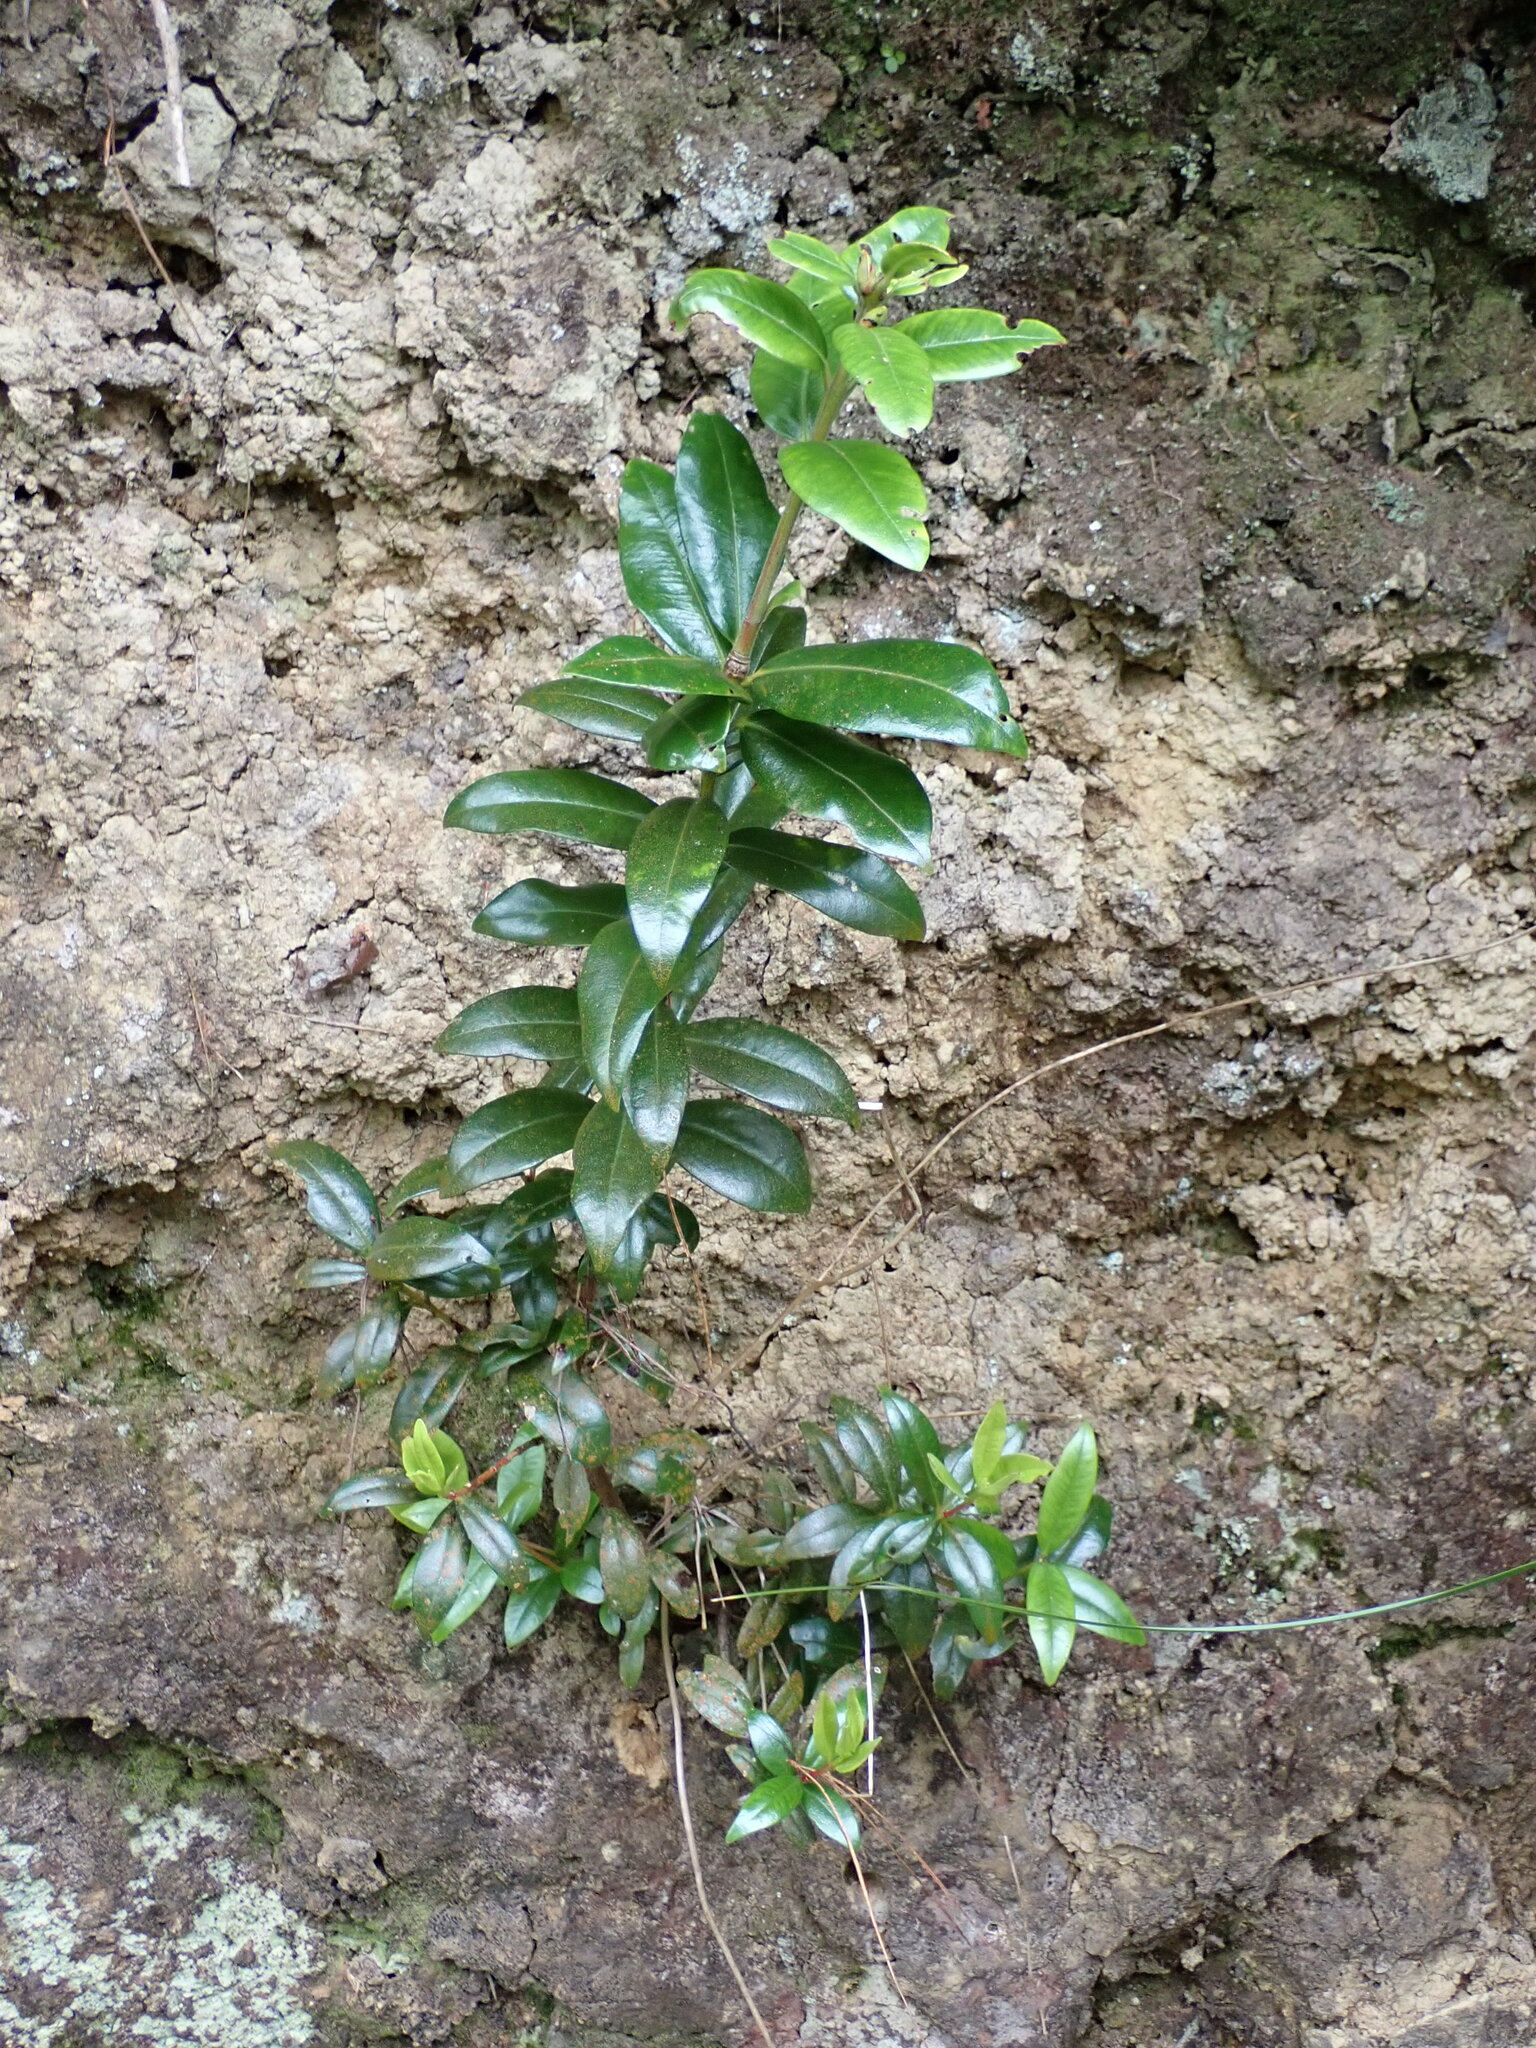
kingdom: Plantae
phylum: Tracheophyta
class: Magnoliopsida
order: Myrtales
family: Myrtaceae
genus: Metrosideros
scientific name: Metrosideros excelsa
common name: New zealand christmastree
